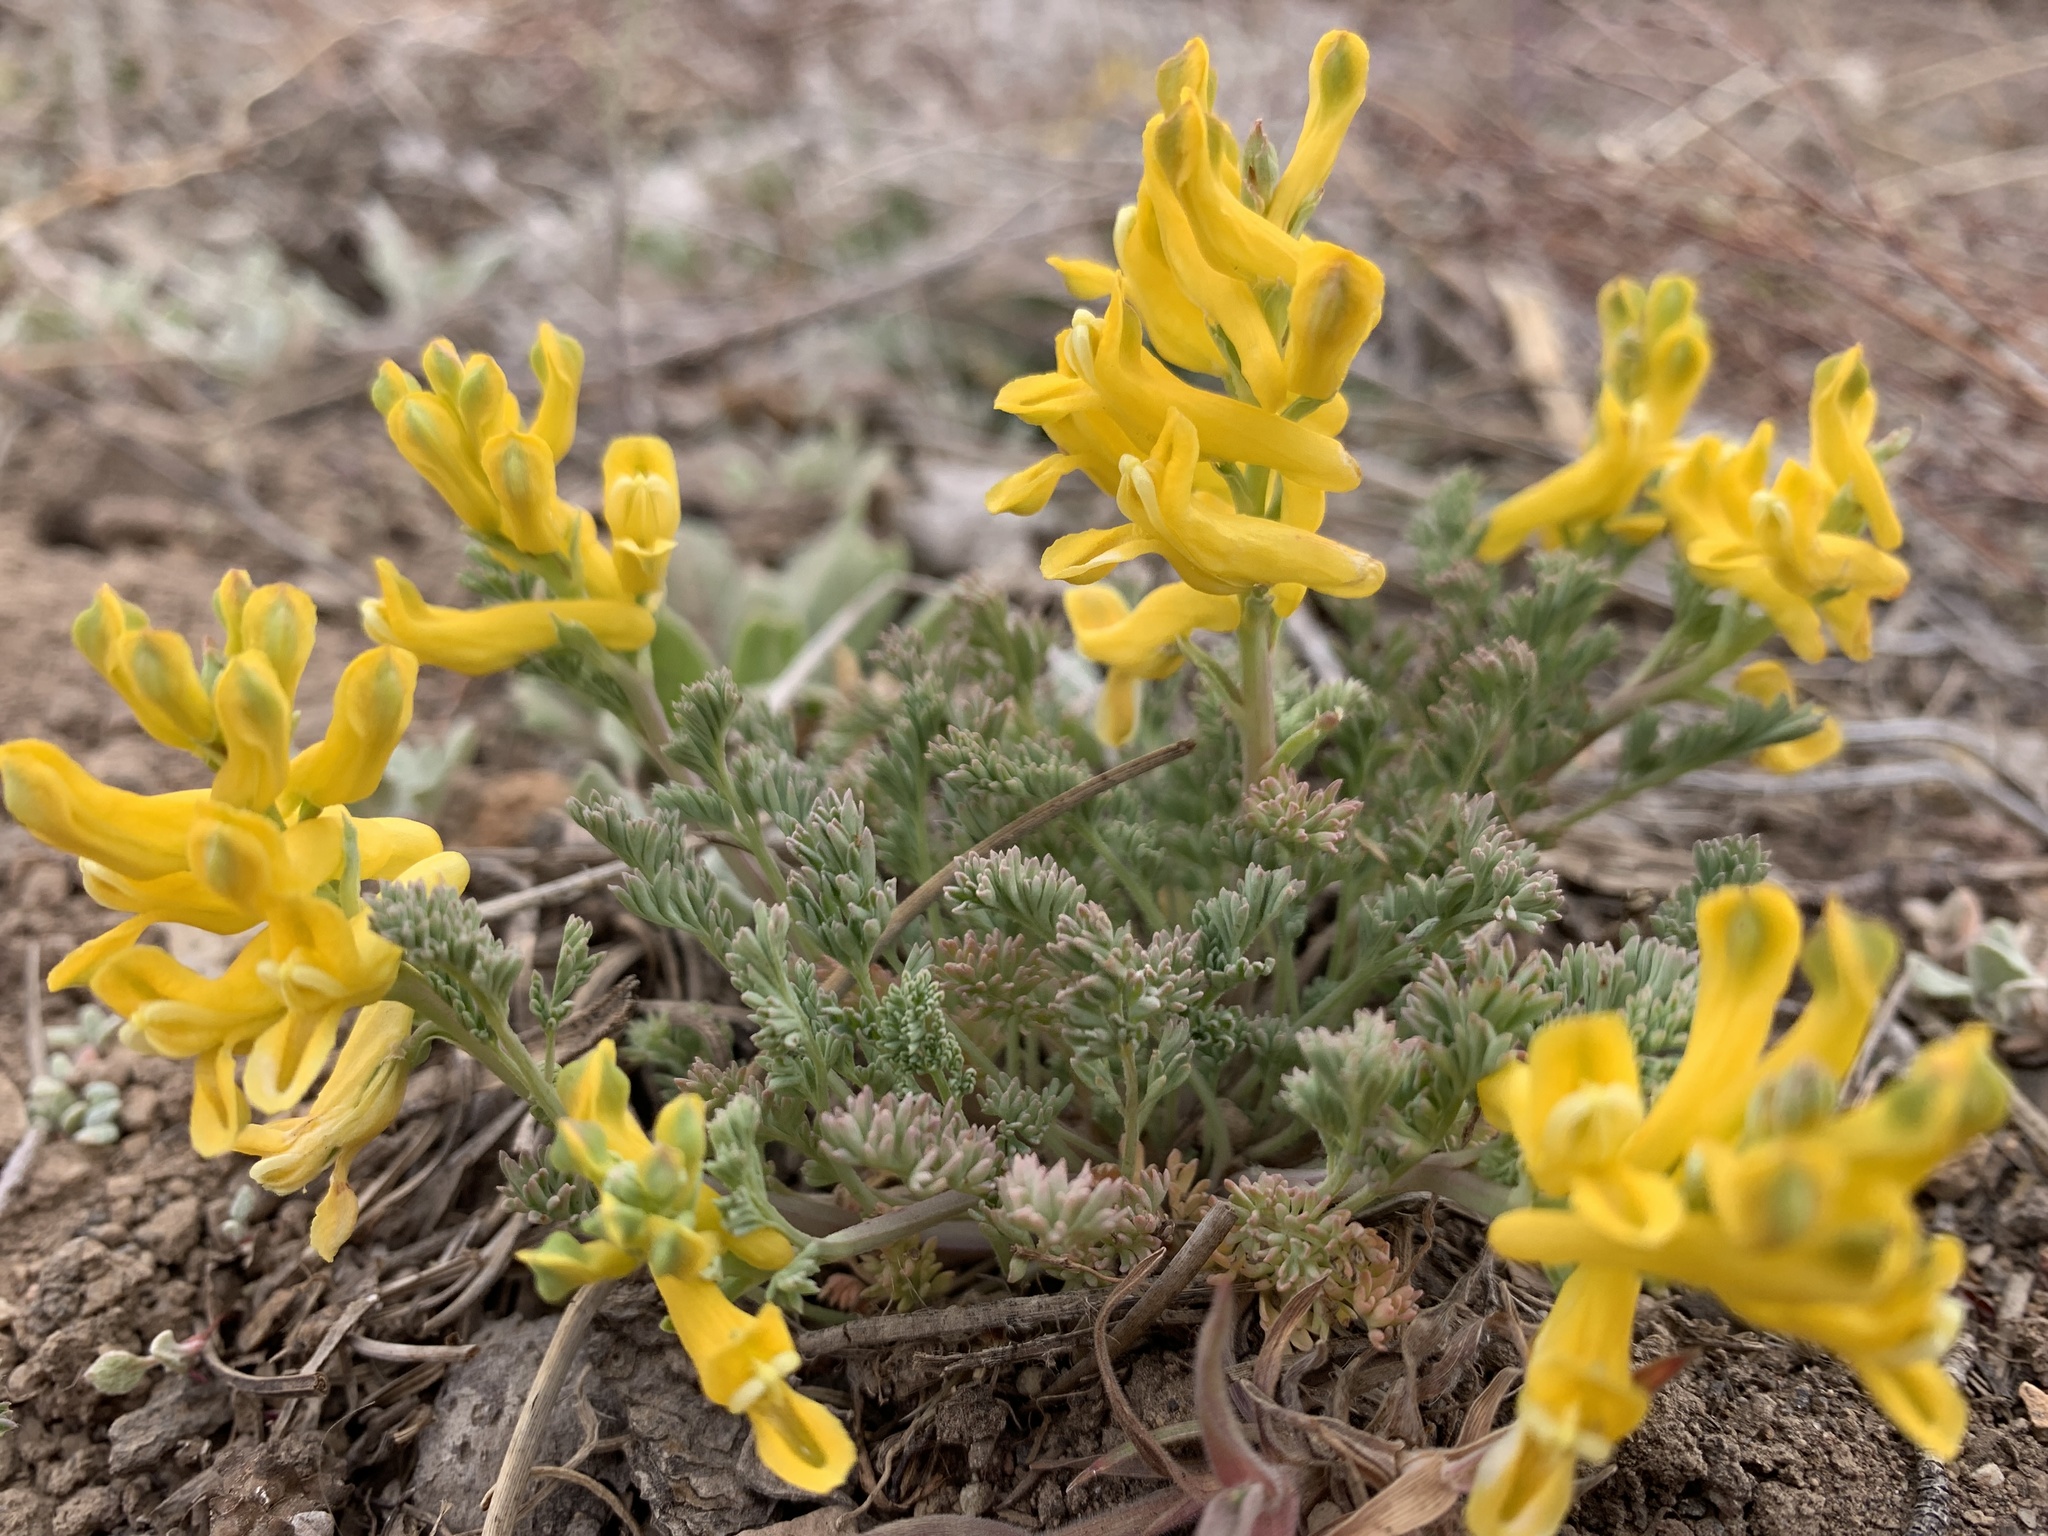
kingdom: Plantae
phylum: Tracheophyta
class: Magnoliopsida
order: Ranunculales
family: Papaveraceae
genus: Corydalis
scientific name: Corydalis curvisiliqua
